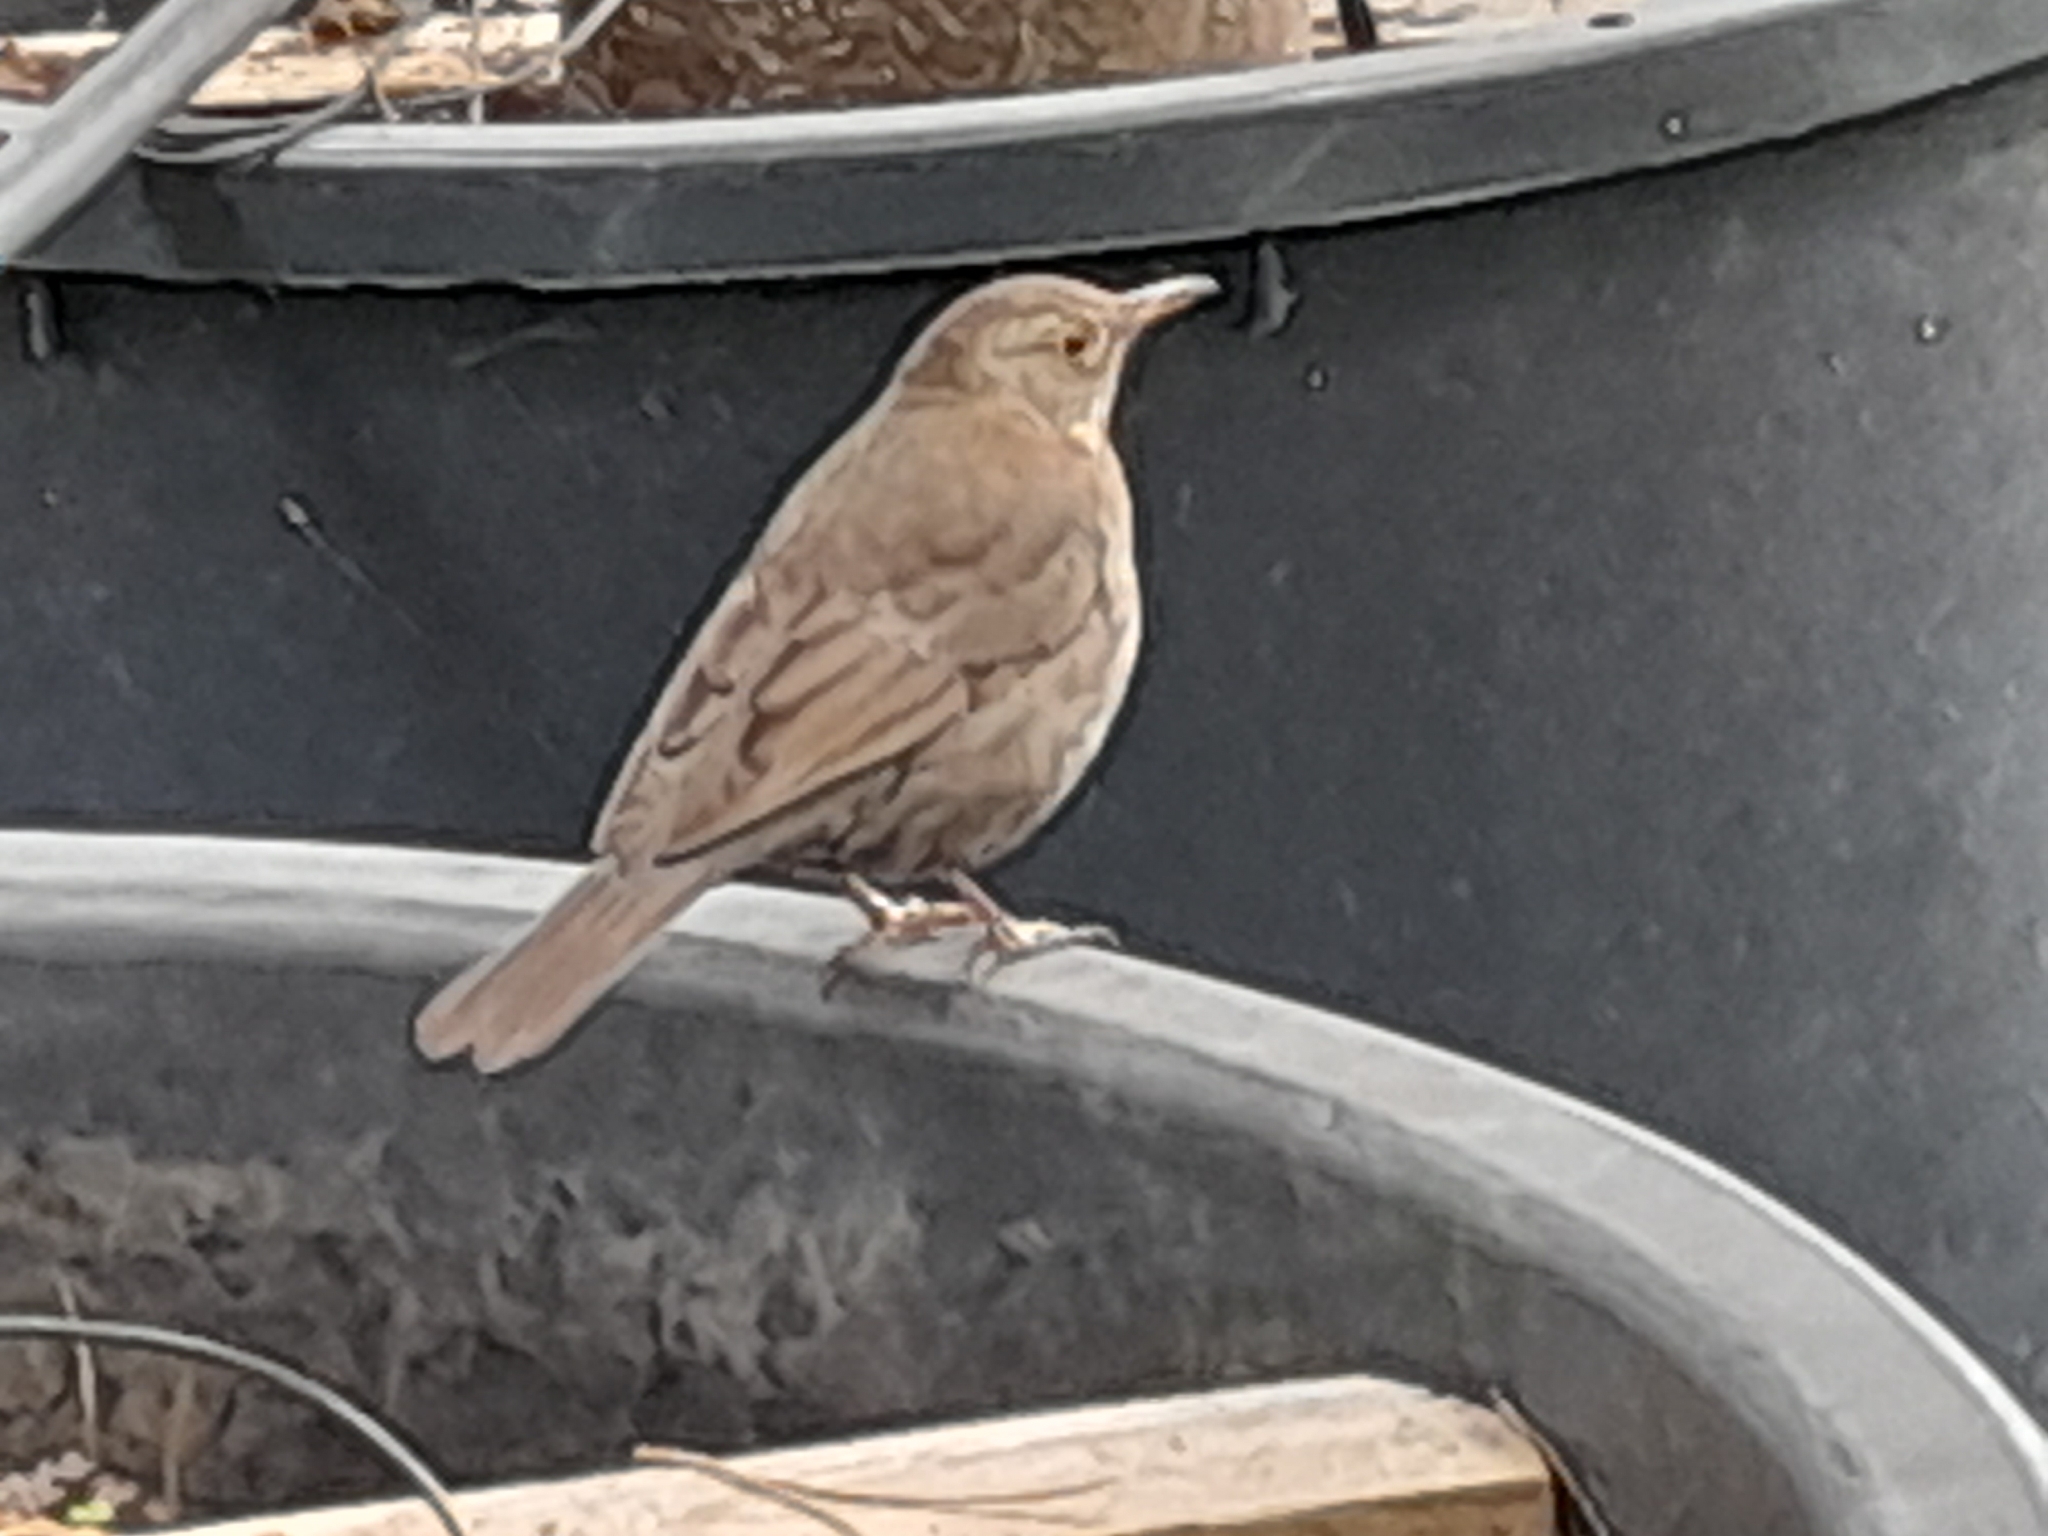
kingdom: Animalia
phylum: Chordata
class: Aves
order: Passeriformes
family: Turdidae
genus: Turdus
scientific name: Turdus merula
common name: Common blackbird
